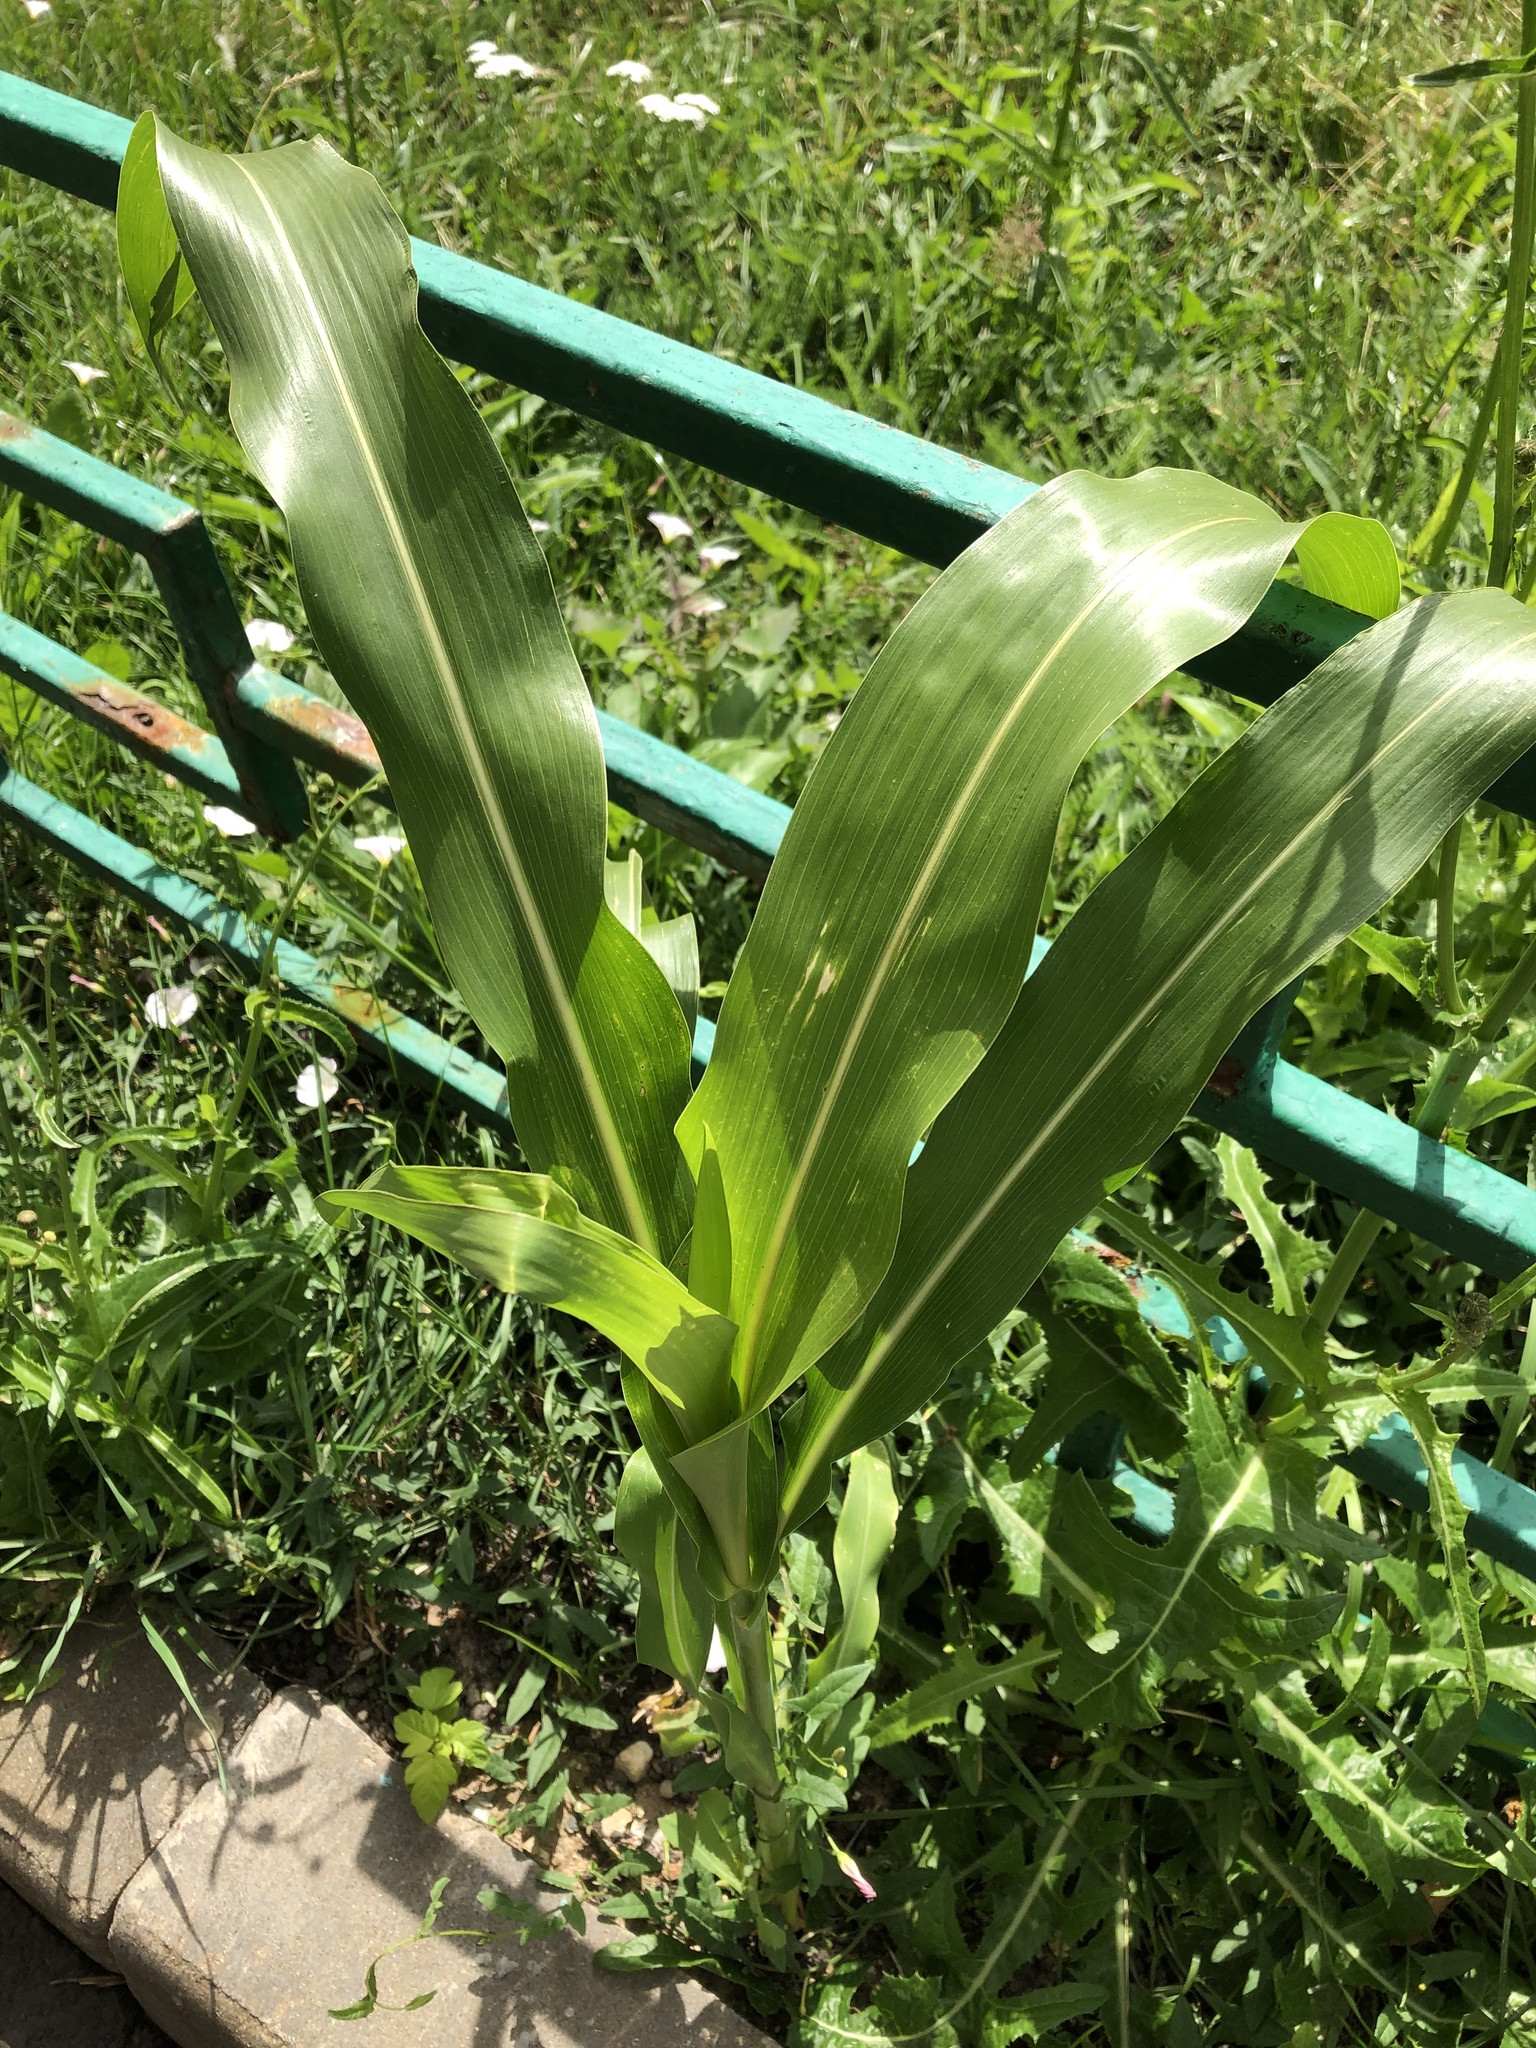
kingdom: Plantae
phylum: Tracheophyta
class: Liliopsida
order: Poales
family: Poaceae
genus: Zea
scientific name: Zea mays
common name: Maize
